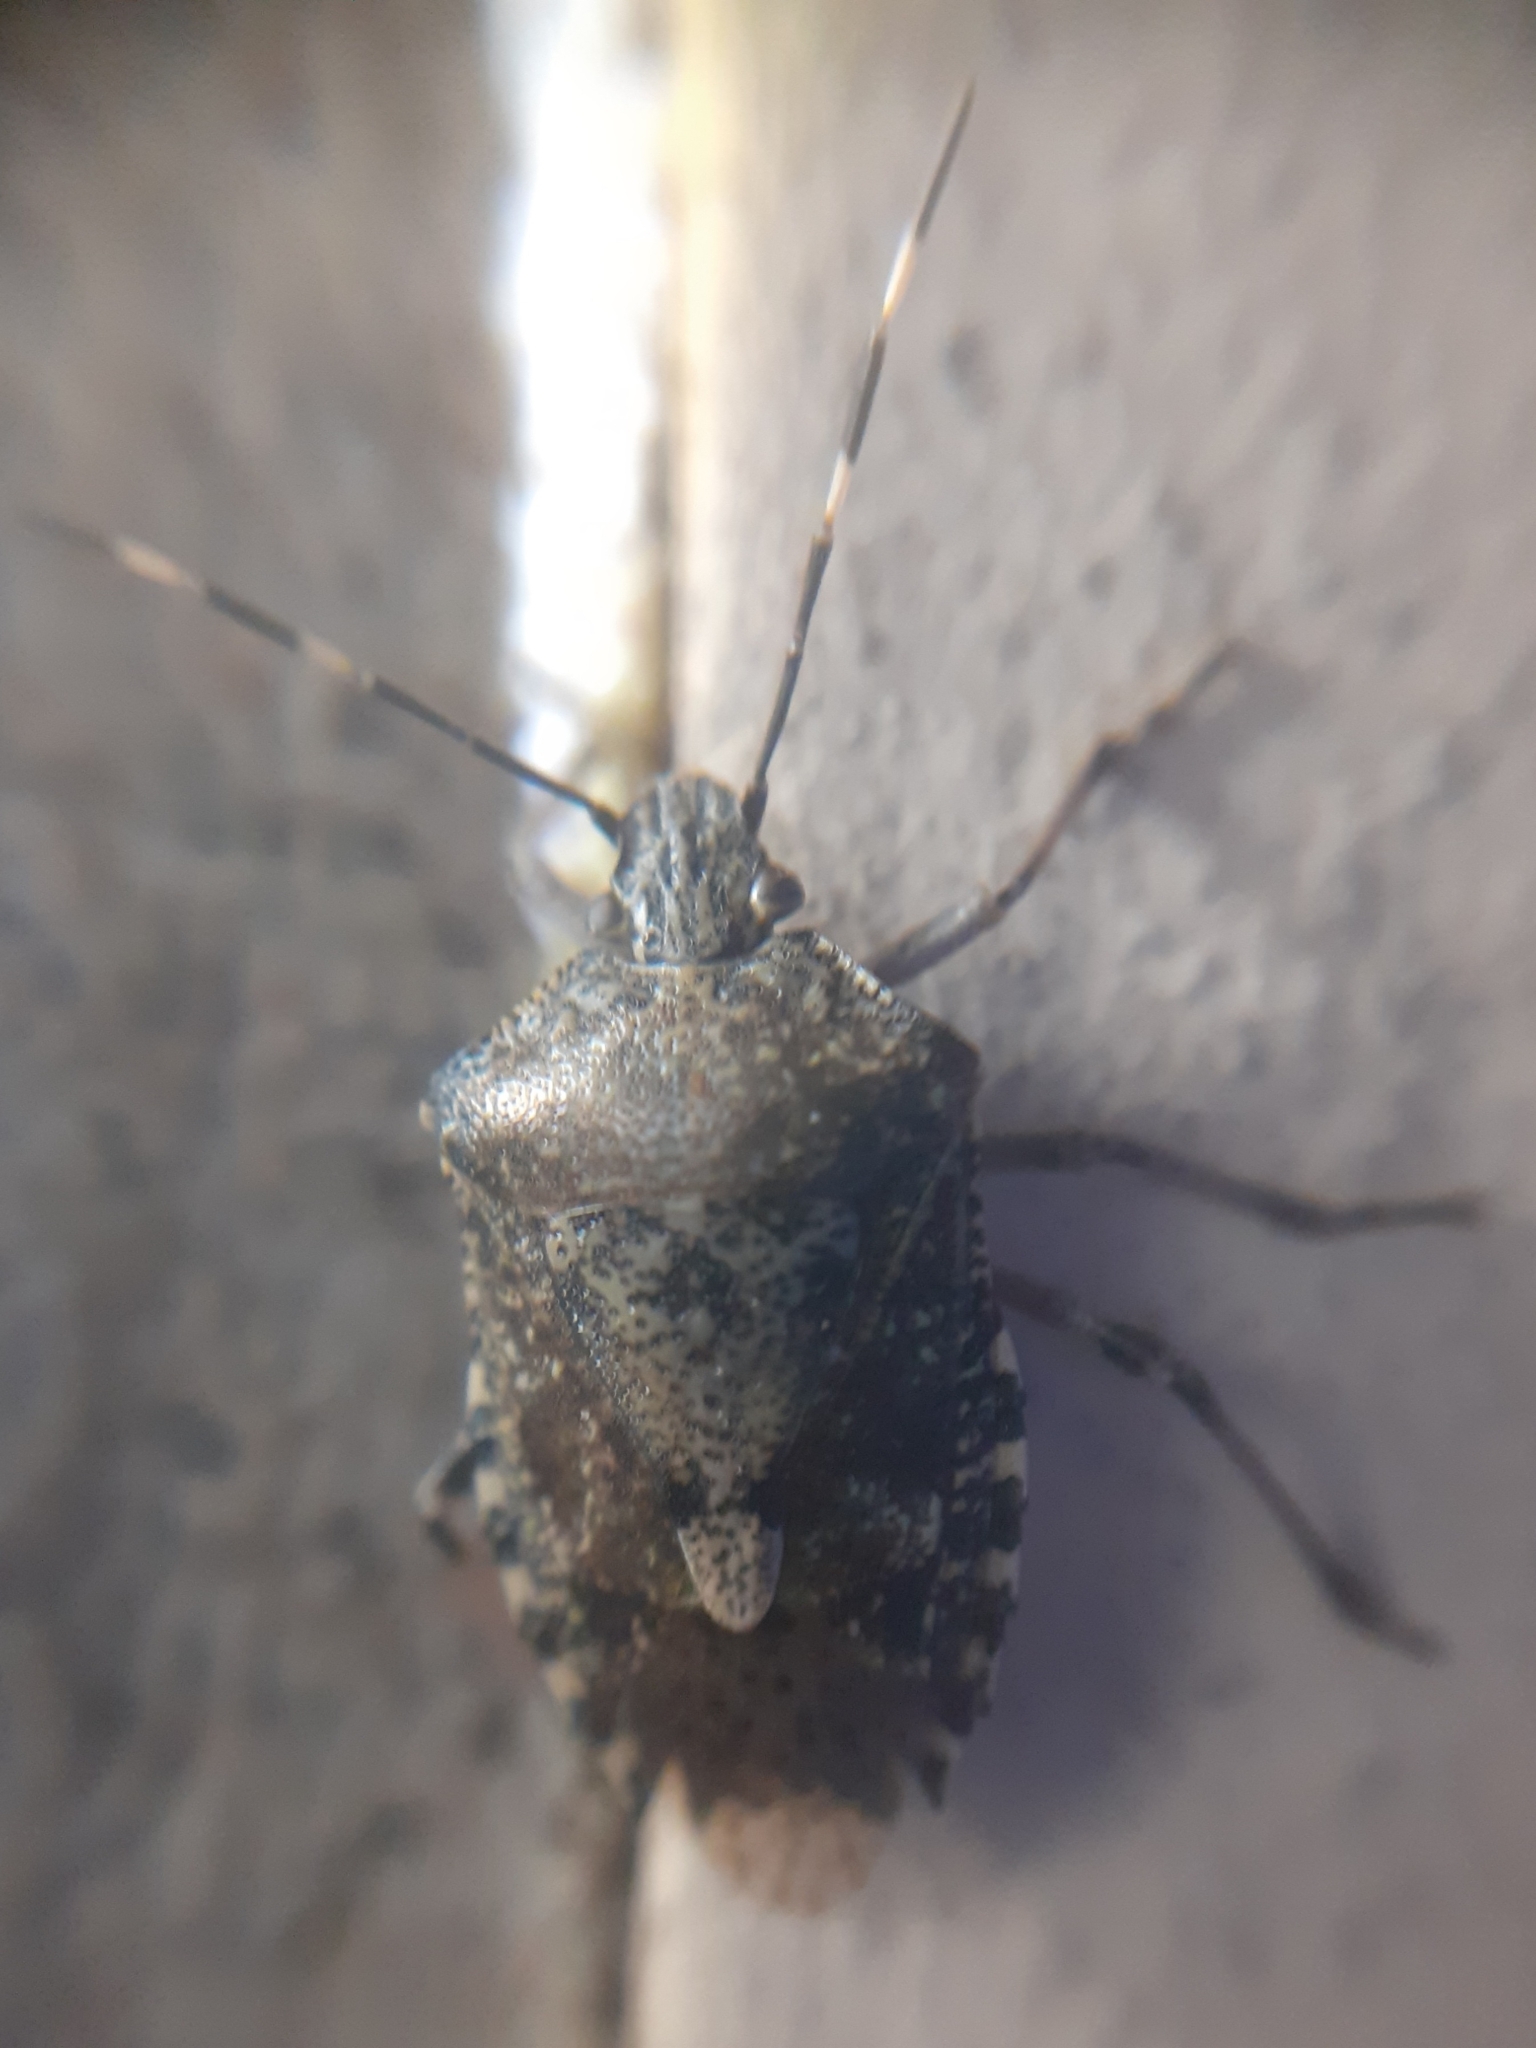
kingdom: Animalia
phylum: Arthropoda
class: Insecta
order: Hemiptera
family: Pentatomidae
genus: Rhaphigaster
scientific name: Rhaphigaster nebulosa
